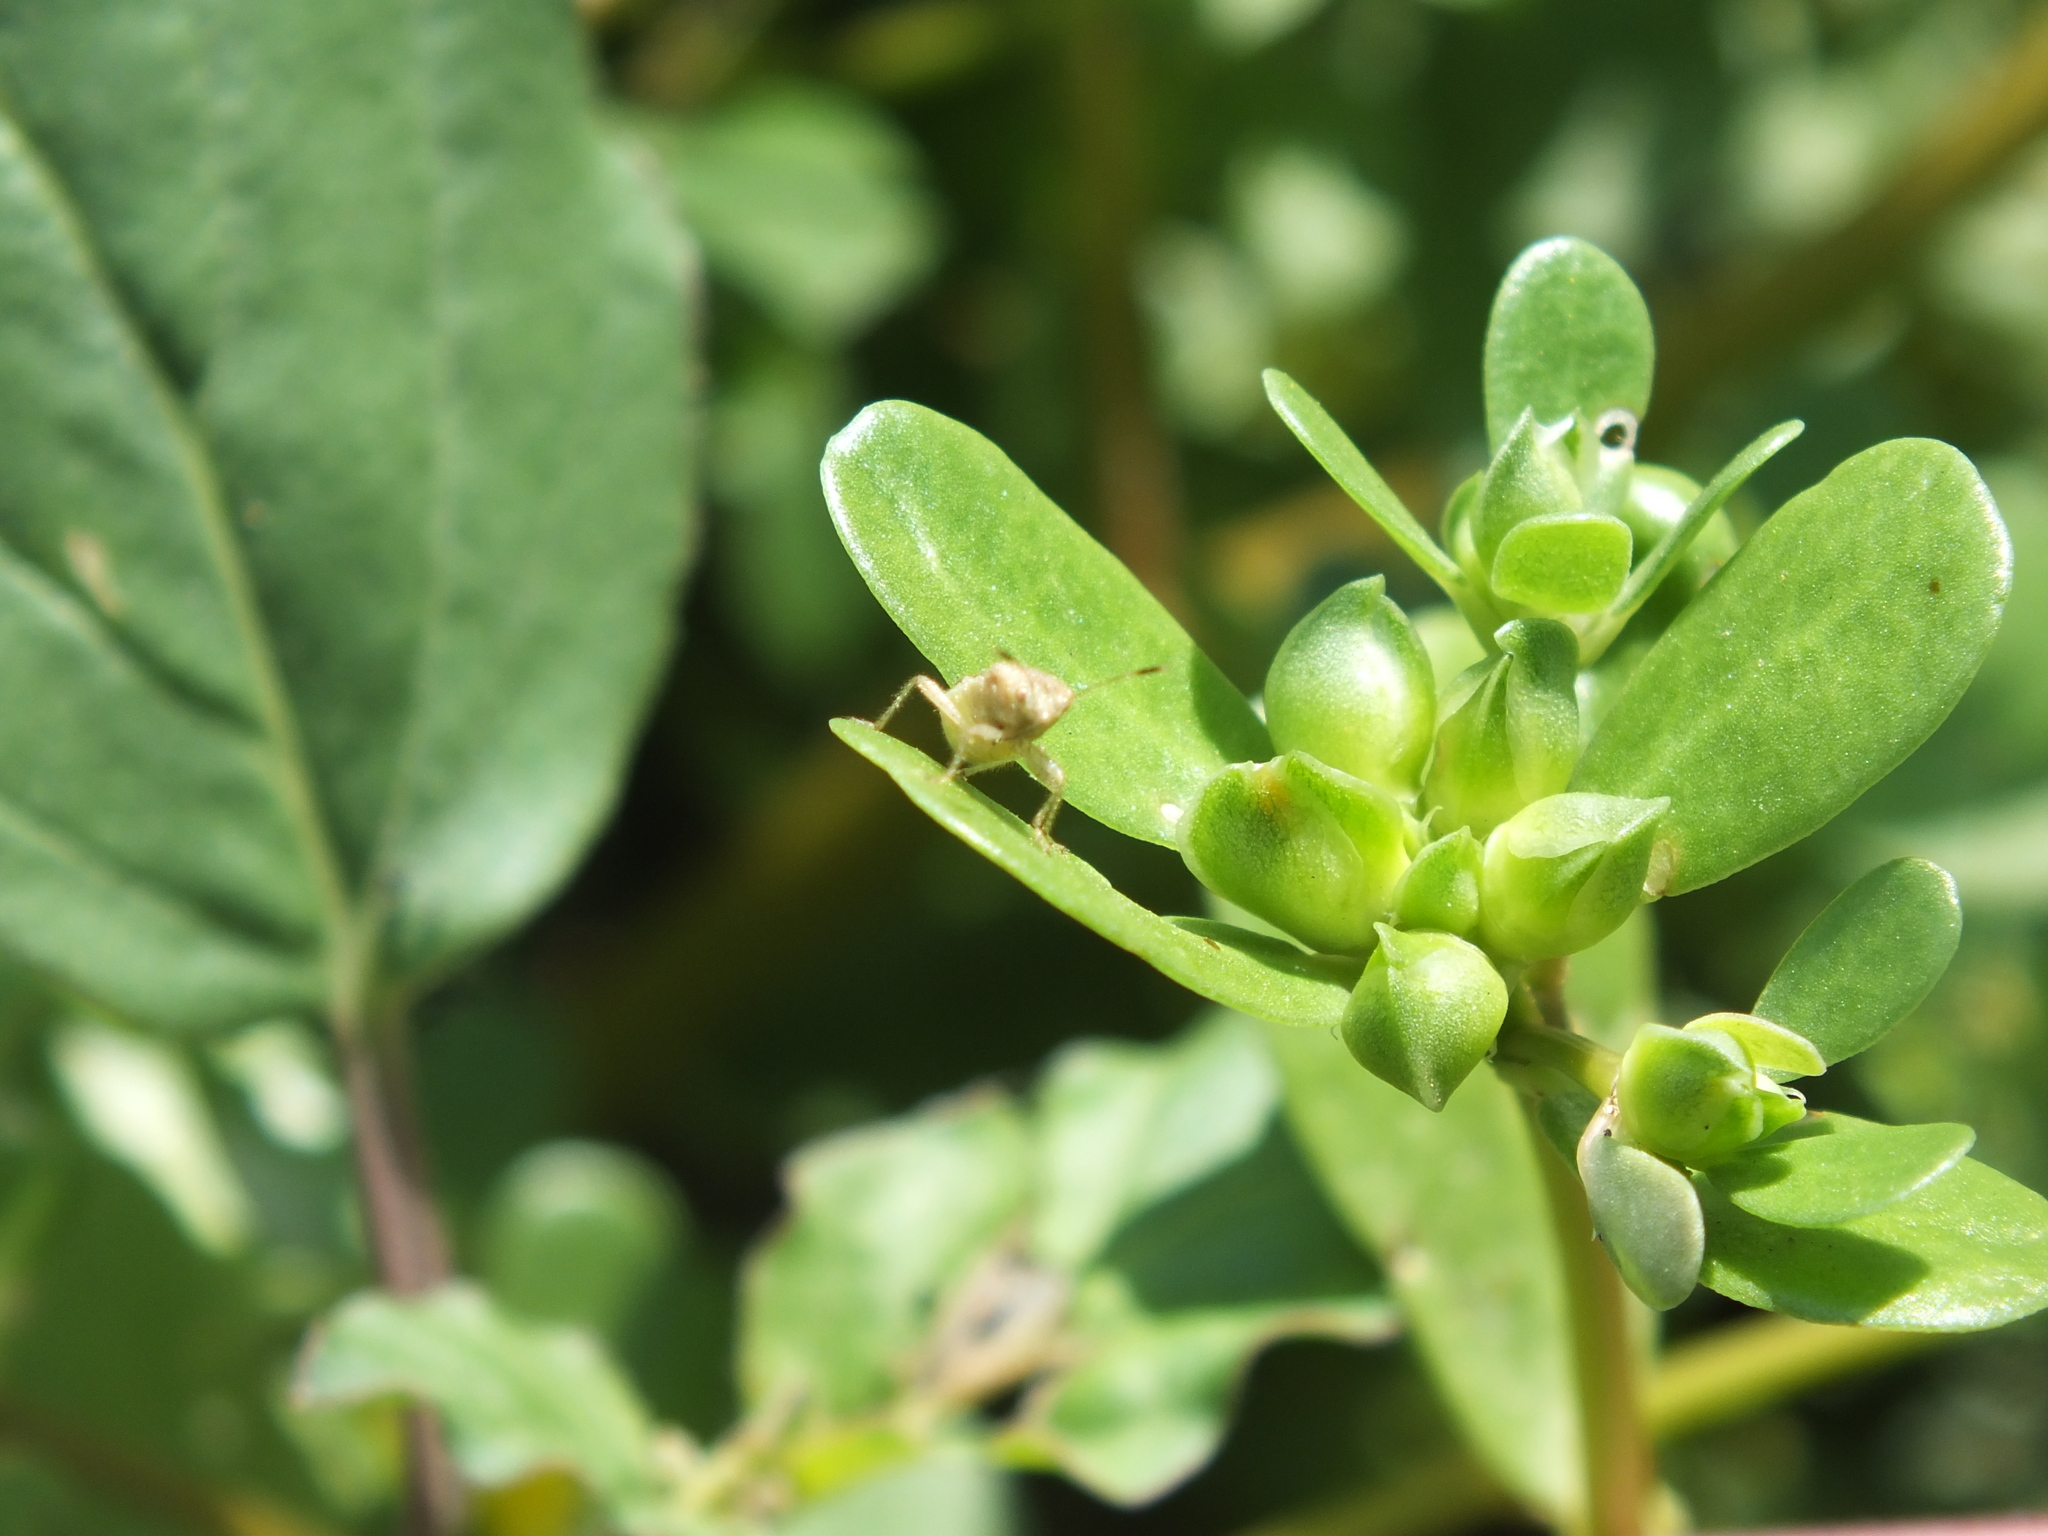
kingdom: Plantae
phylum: Tracheophyta
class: Magnoliopsida
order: Caryophyllales
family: Portulacaceae
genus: Portulaca
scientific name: Portulaca oleracea
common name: Common purslane
